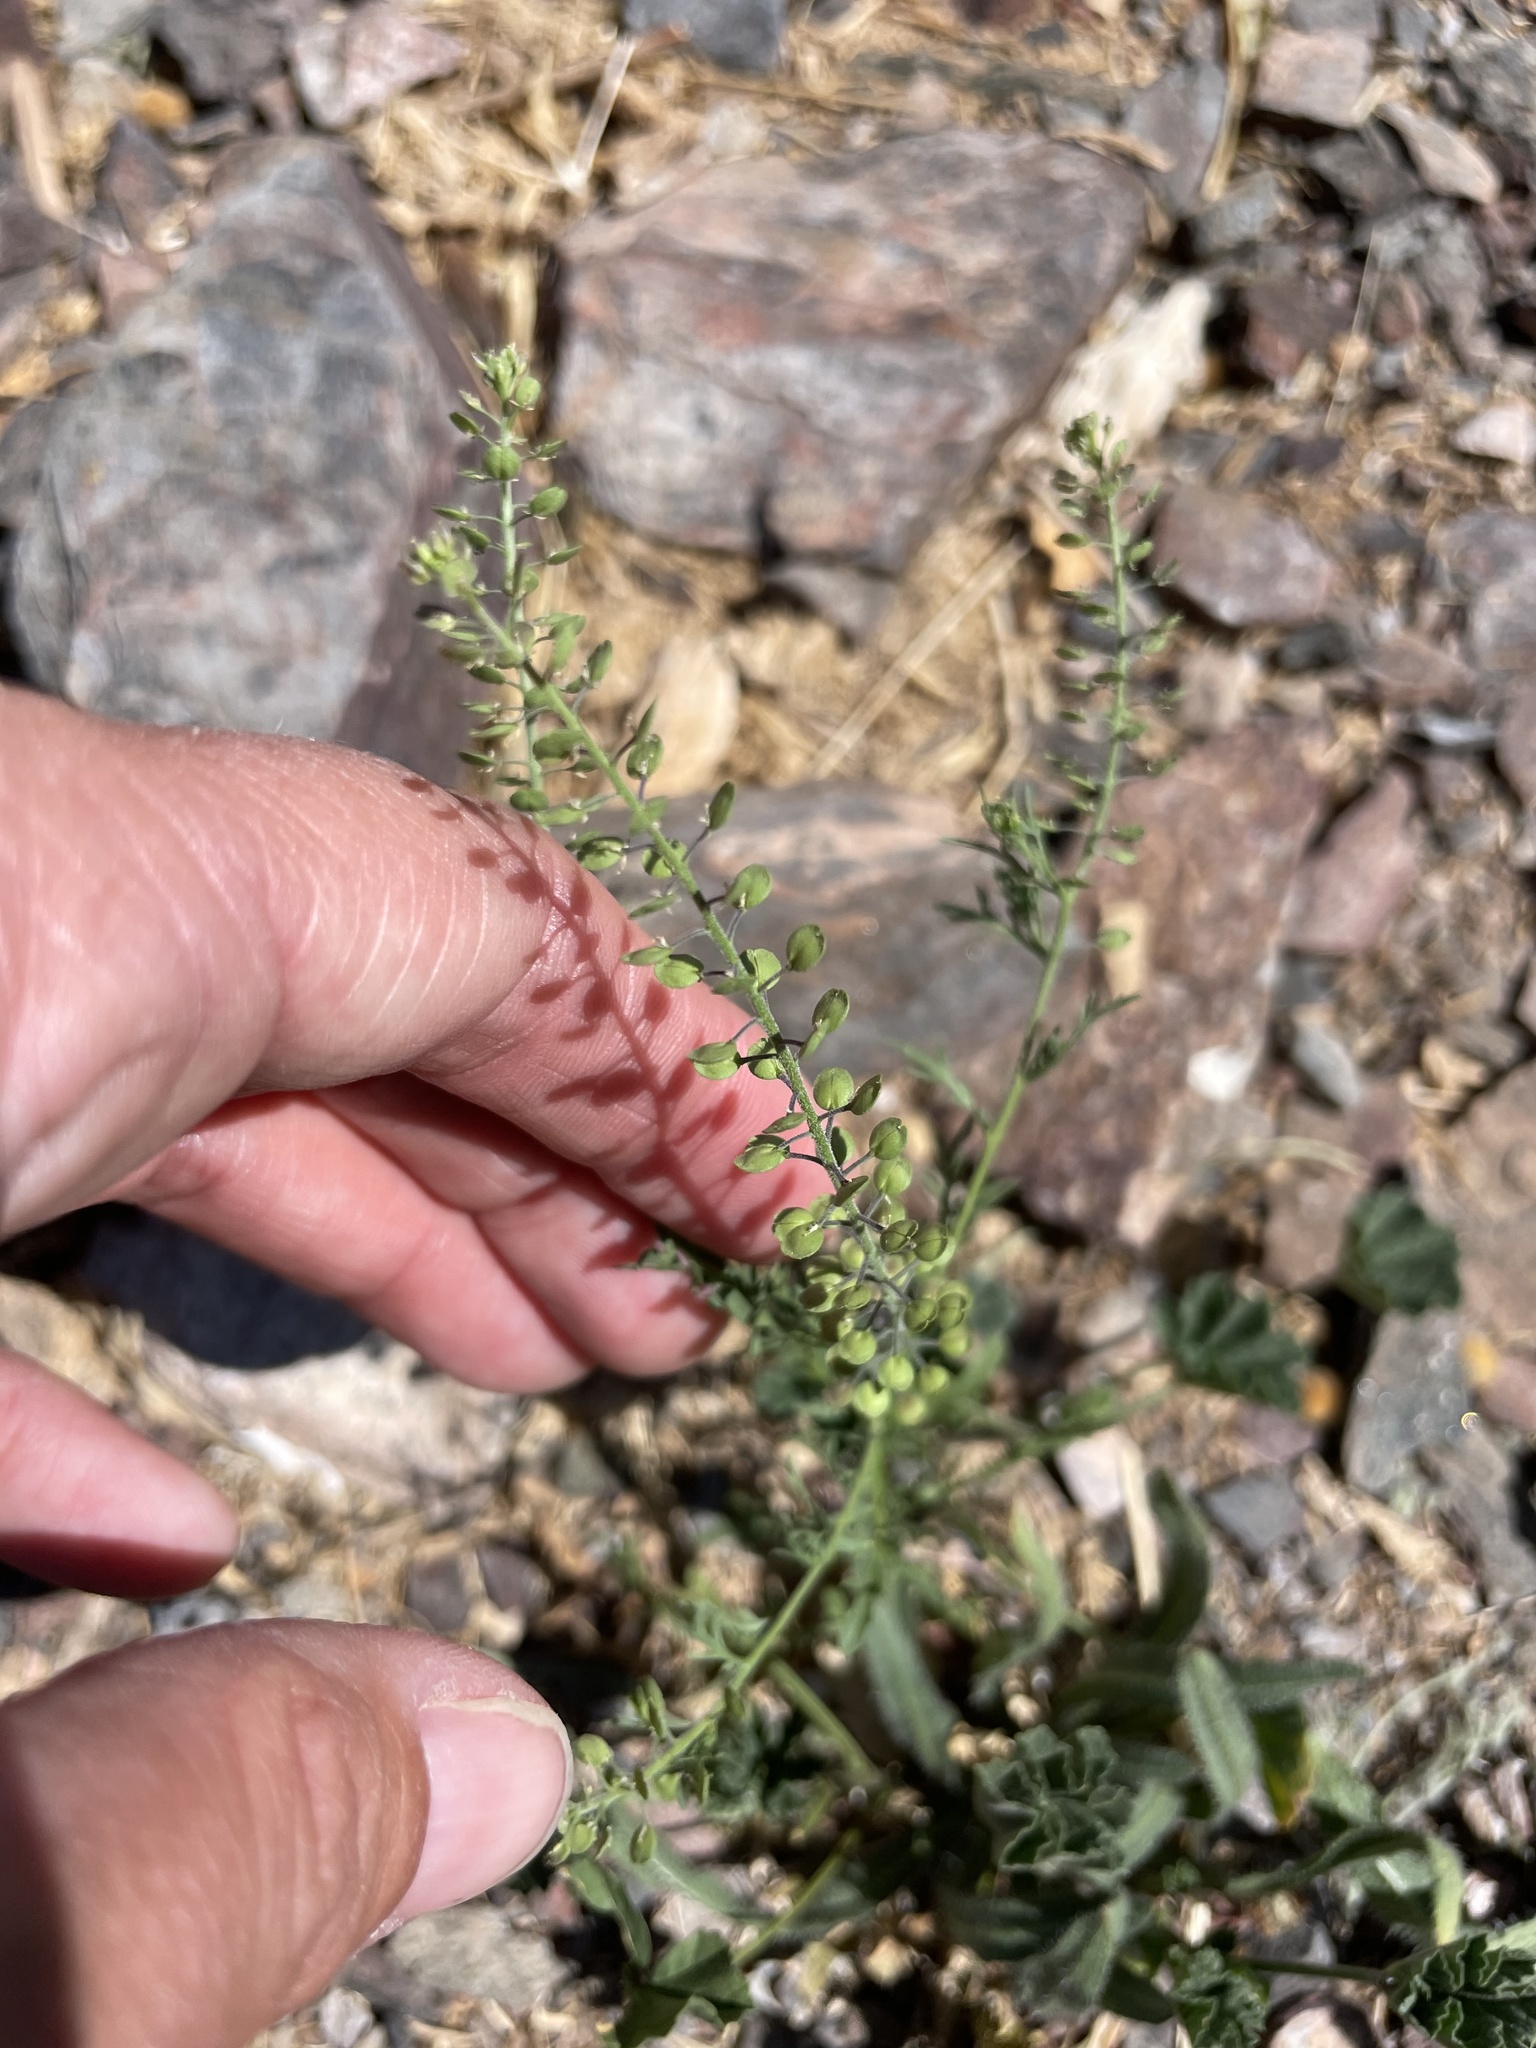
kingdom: Plantae
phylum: Tracheophyta
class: Magnoliopsida
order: Brassicales
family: Brassicaceae
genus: Lepidium
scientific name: Lepidium virginicum
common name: Least pepperwort
